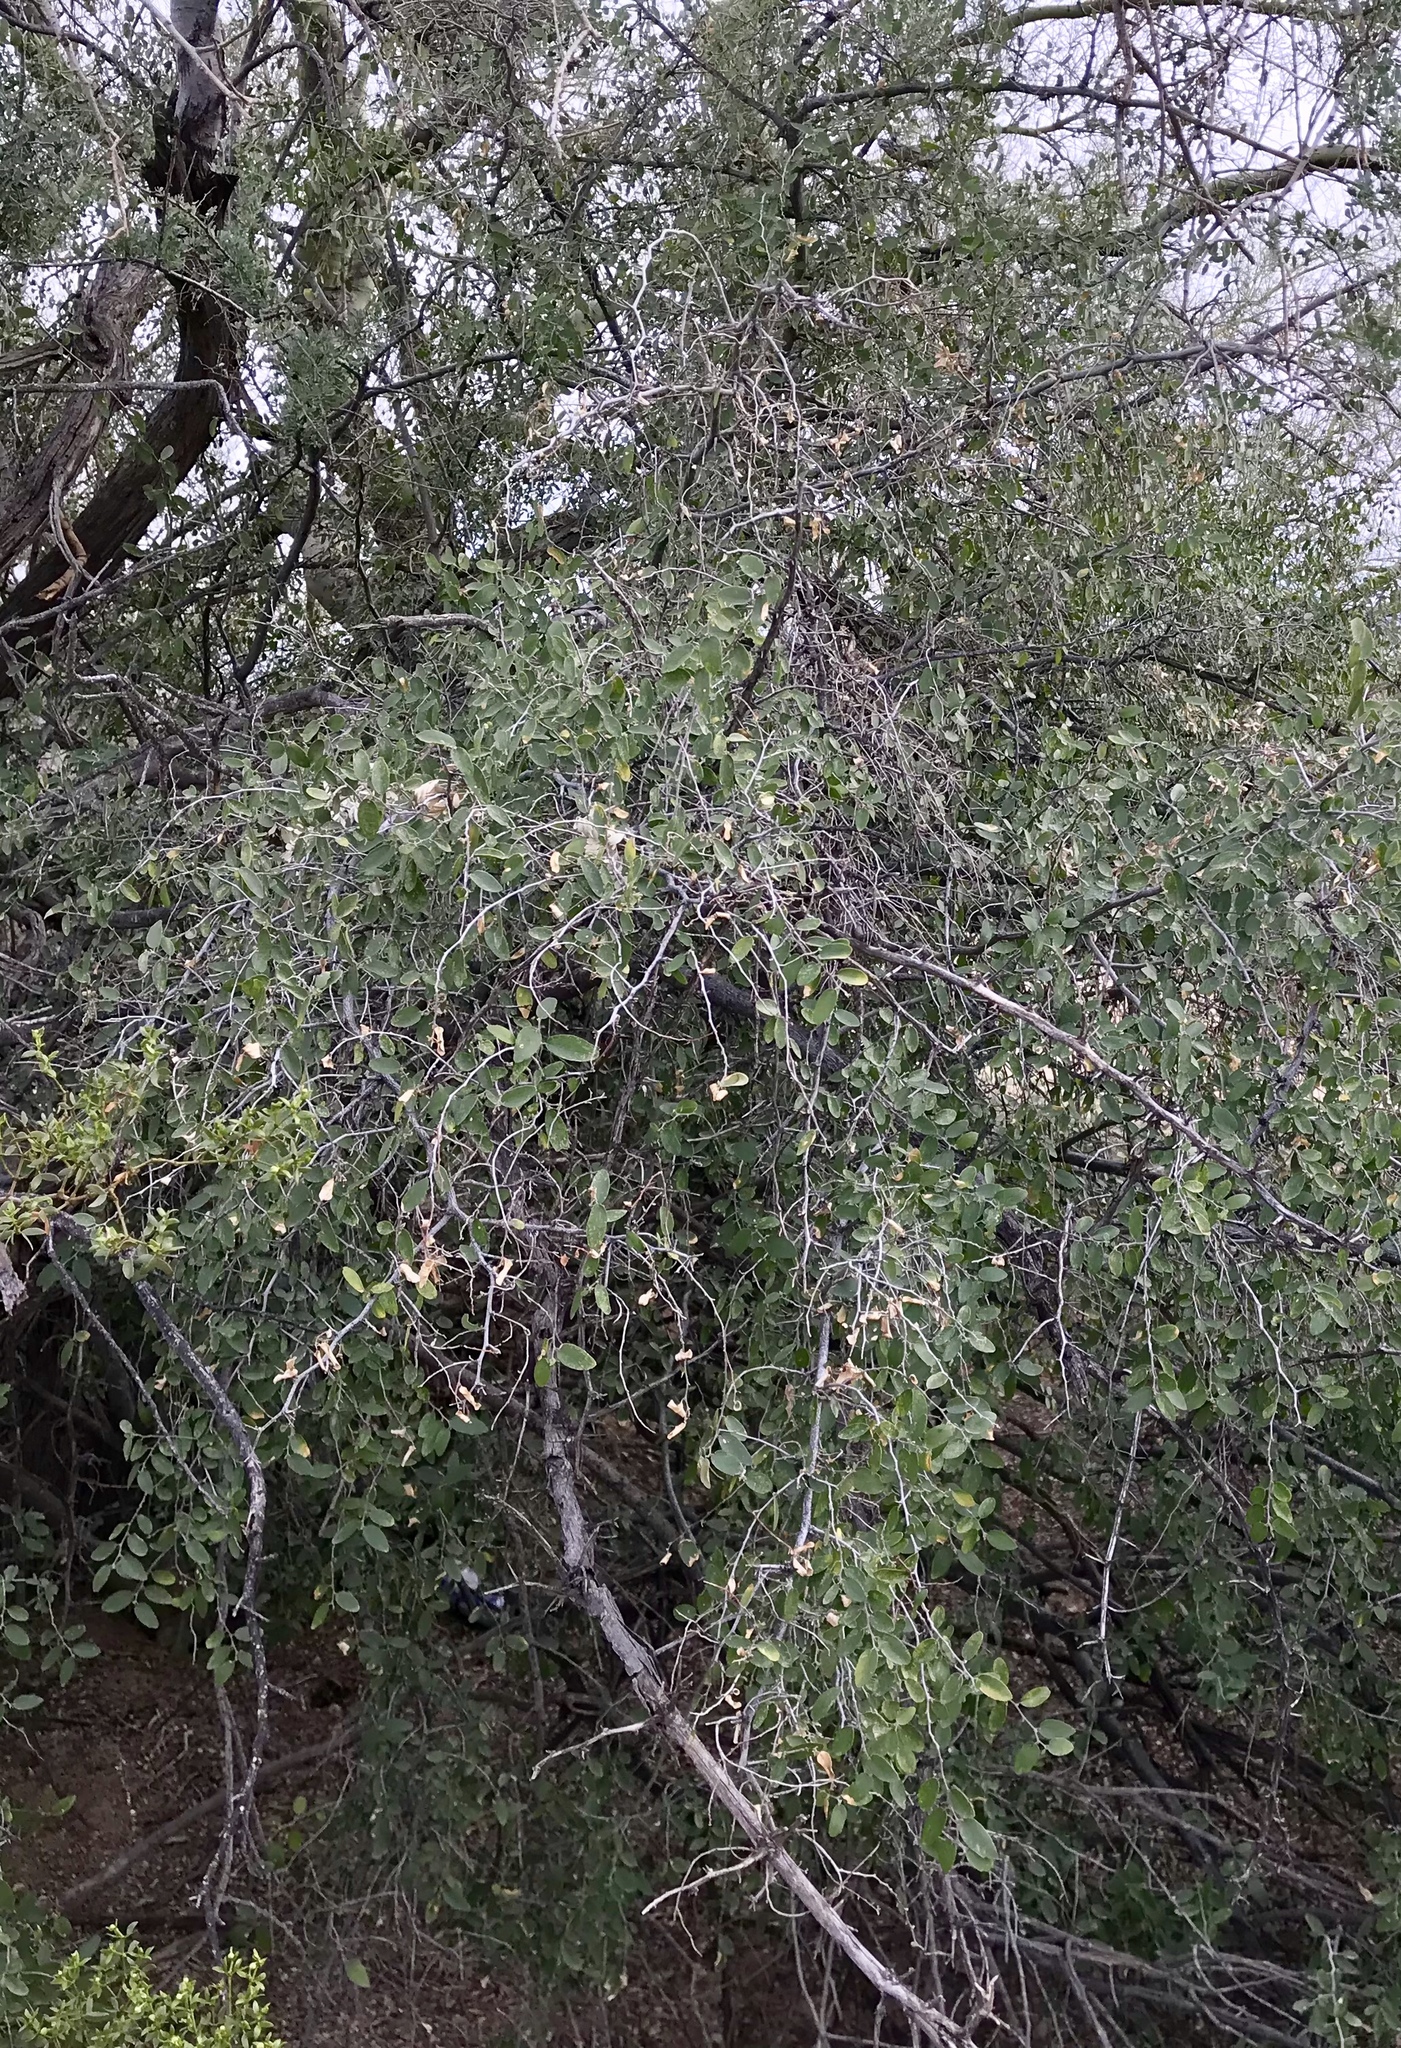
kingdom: Plantae
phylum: Tracheophyta
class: Magnoliopsida
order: Rosales
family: Cannabaceae
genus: Celtis
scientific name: Celtis pallida
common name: Desert hackberry
